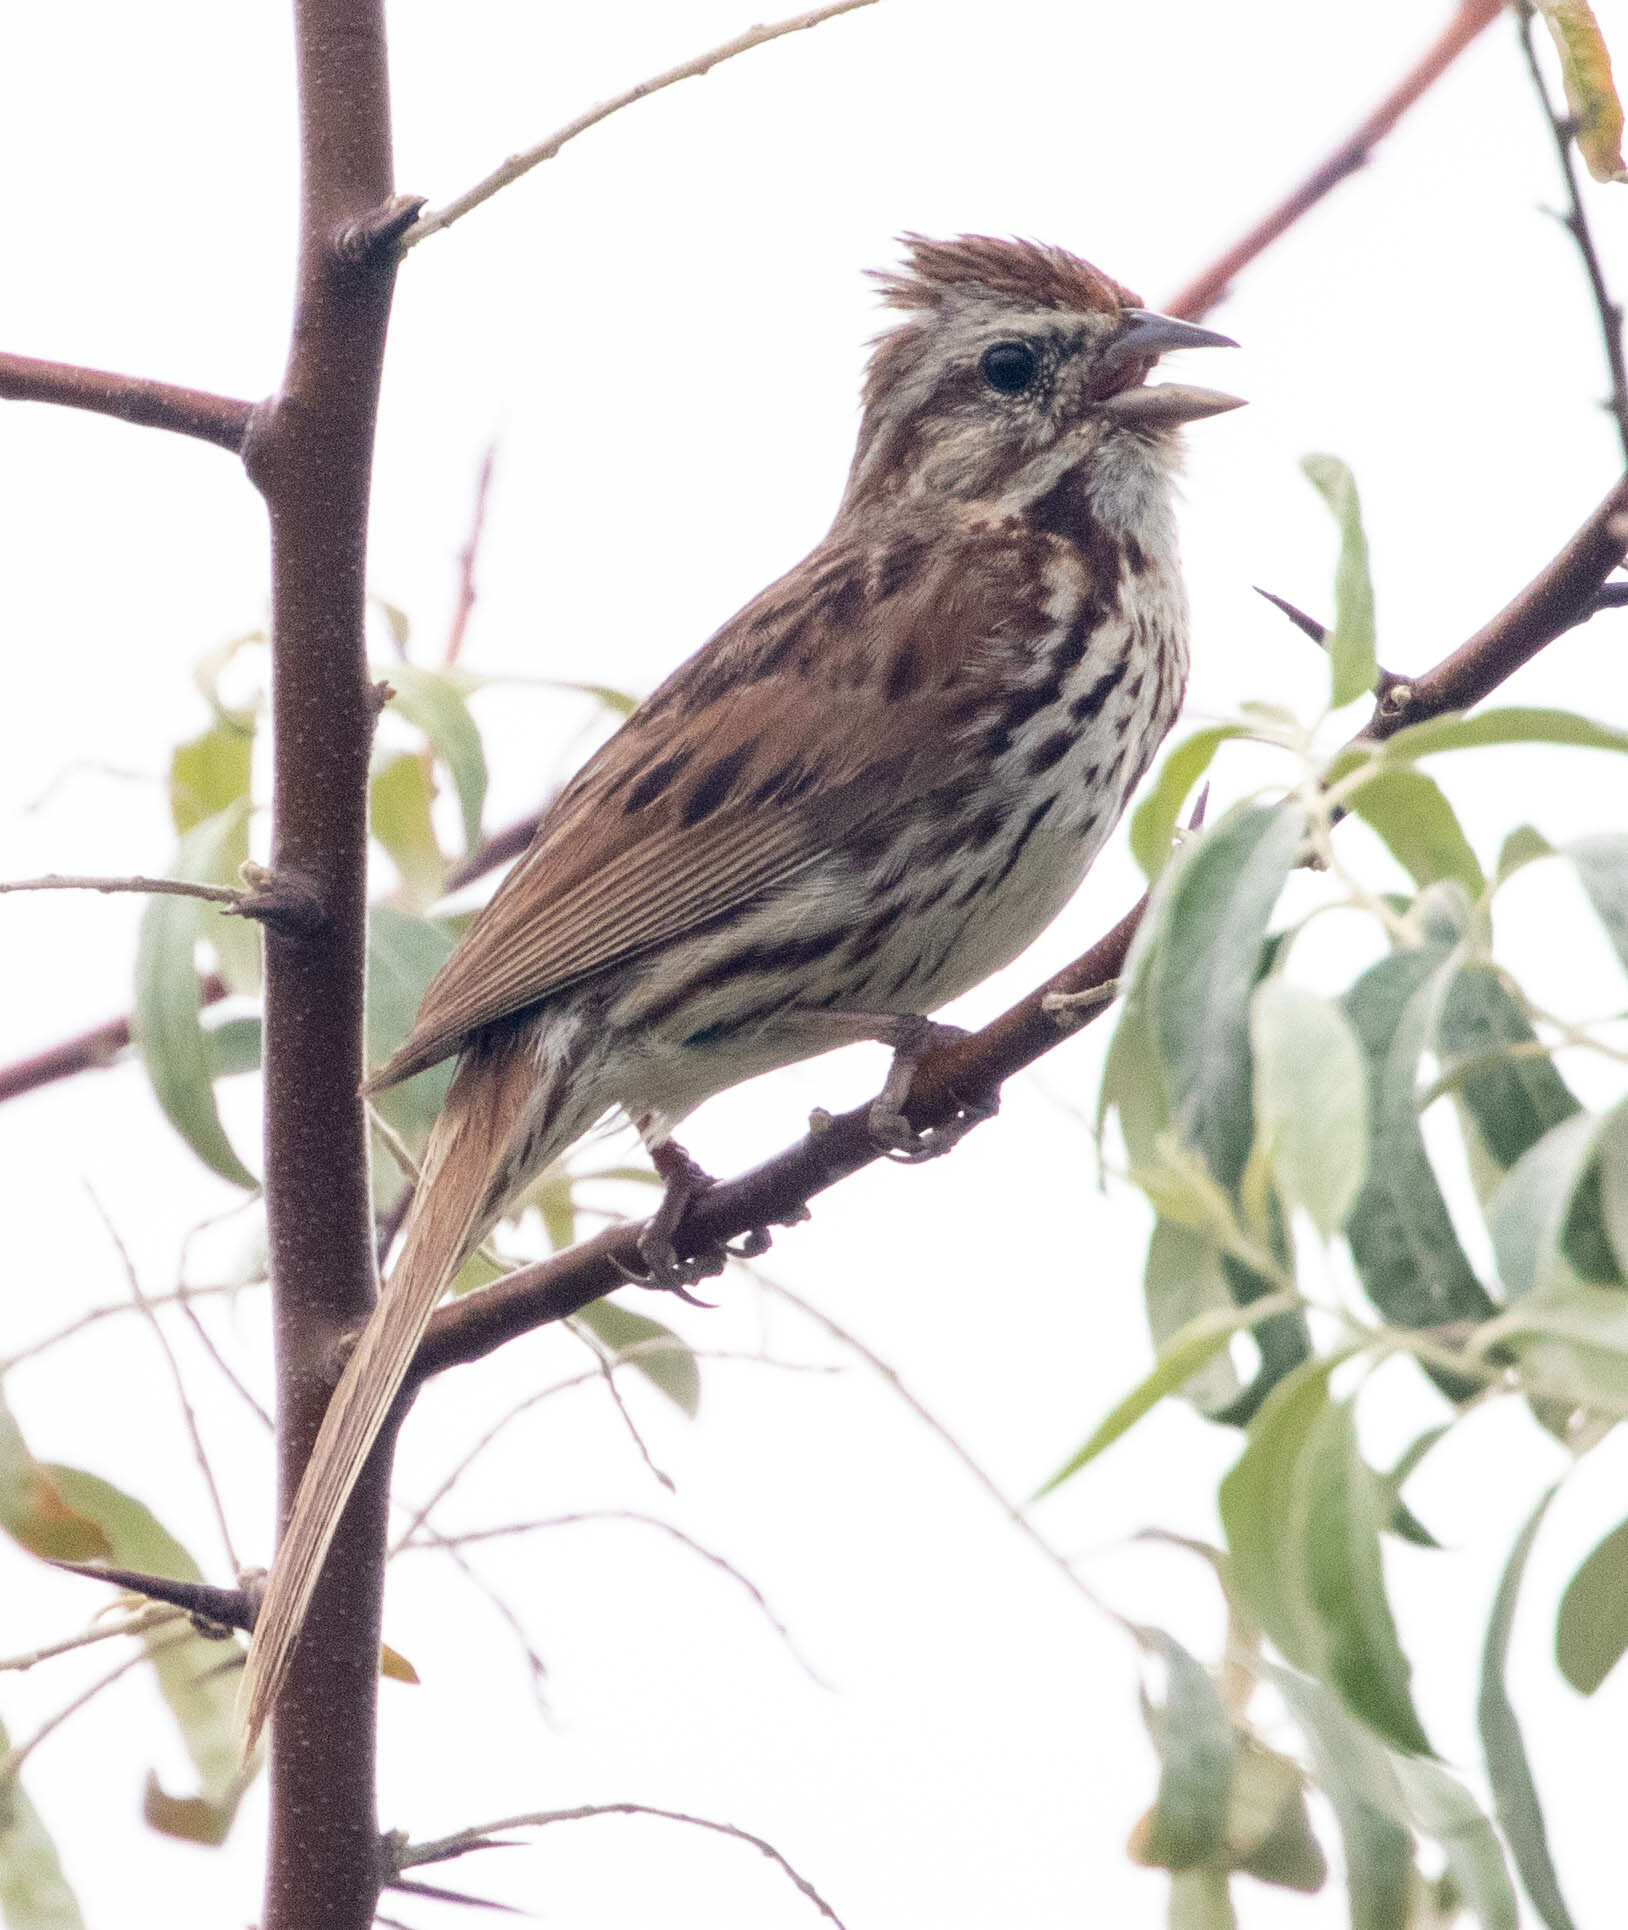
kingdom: Animalia
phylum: Chordata
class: Aves
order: Passeriformes
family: Passerellidae
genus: Melospiza
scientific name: Melospiza melodia
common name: Song sparrow
